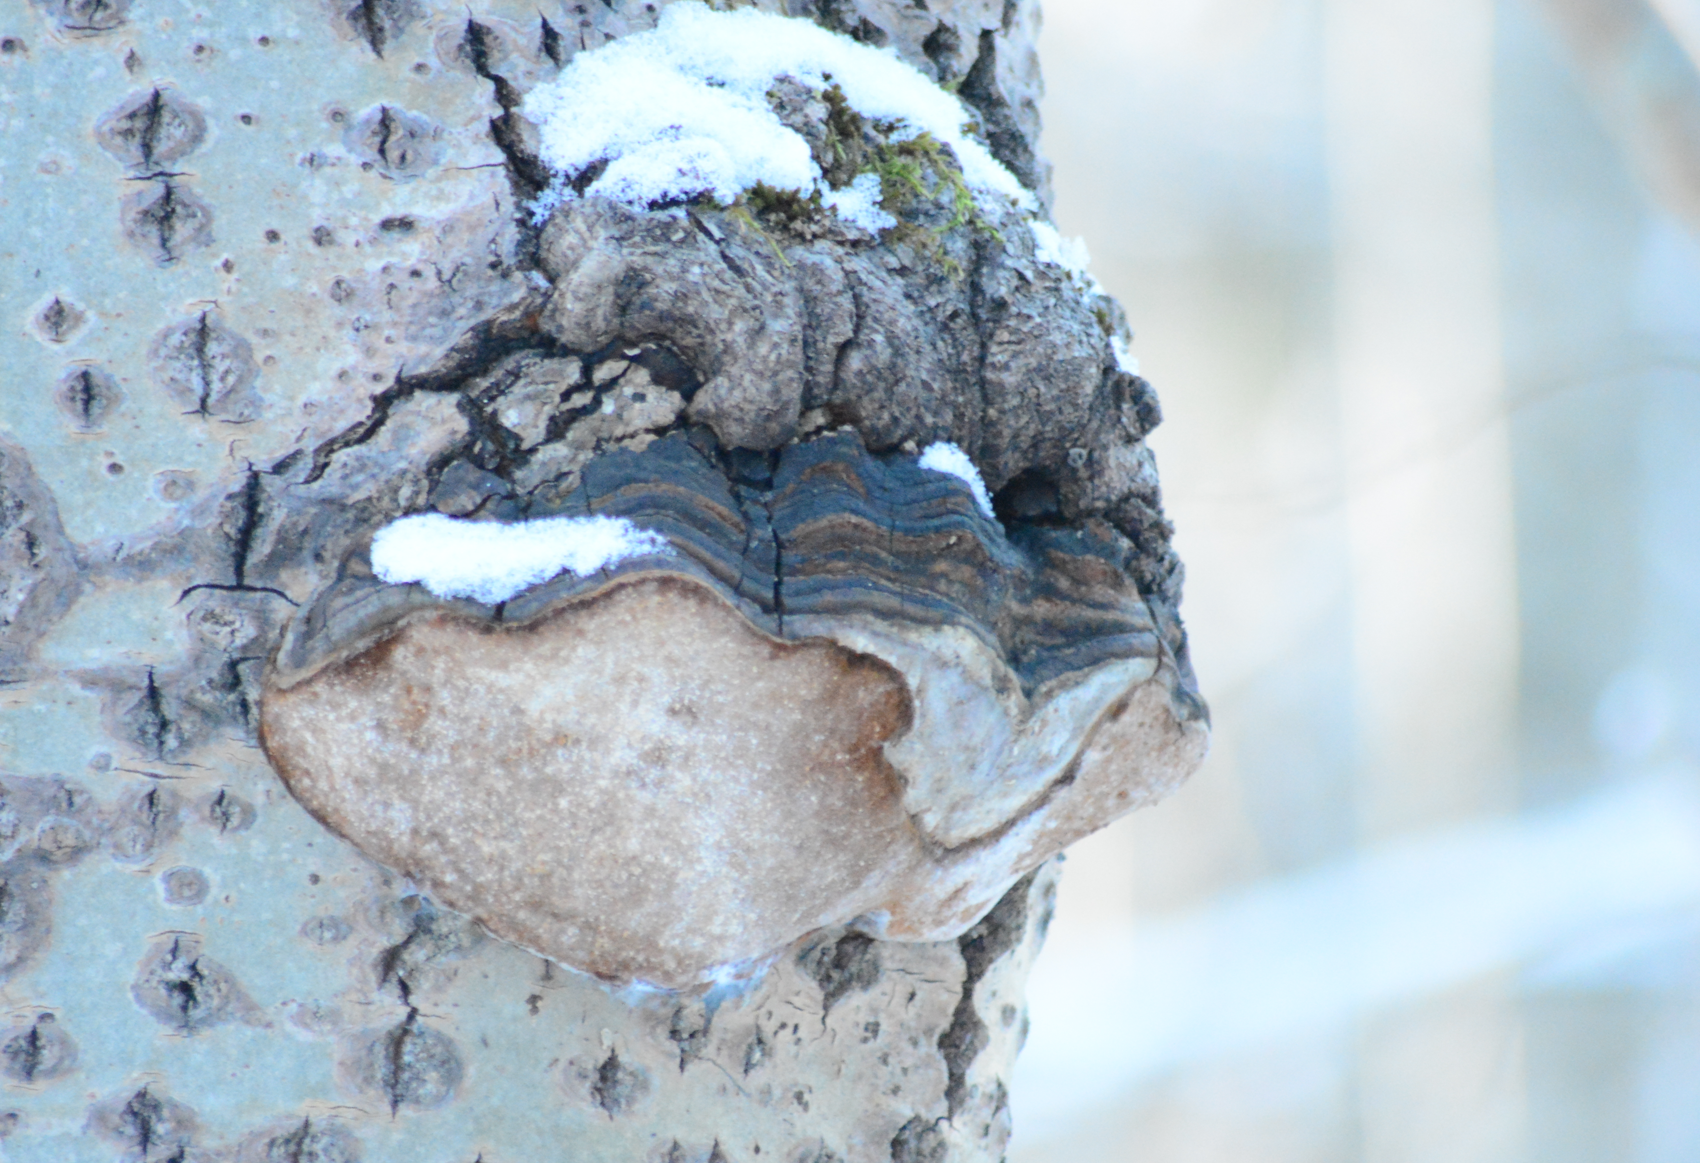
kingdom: Fungi
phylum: Basidiomycota
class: Agaricomycetes
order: Hymenochaetales
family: Hymenochaetaceae
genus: Phellinus
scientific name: Phellinus tremulae
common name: Aspen bracket
